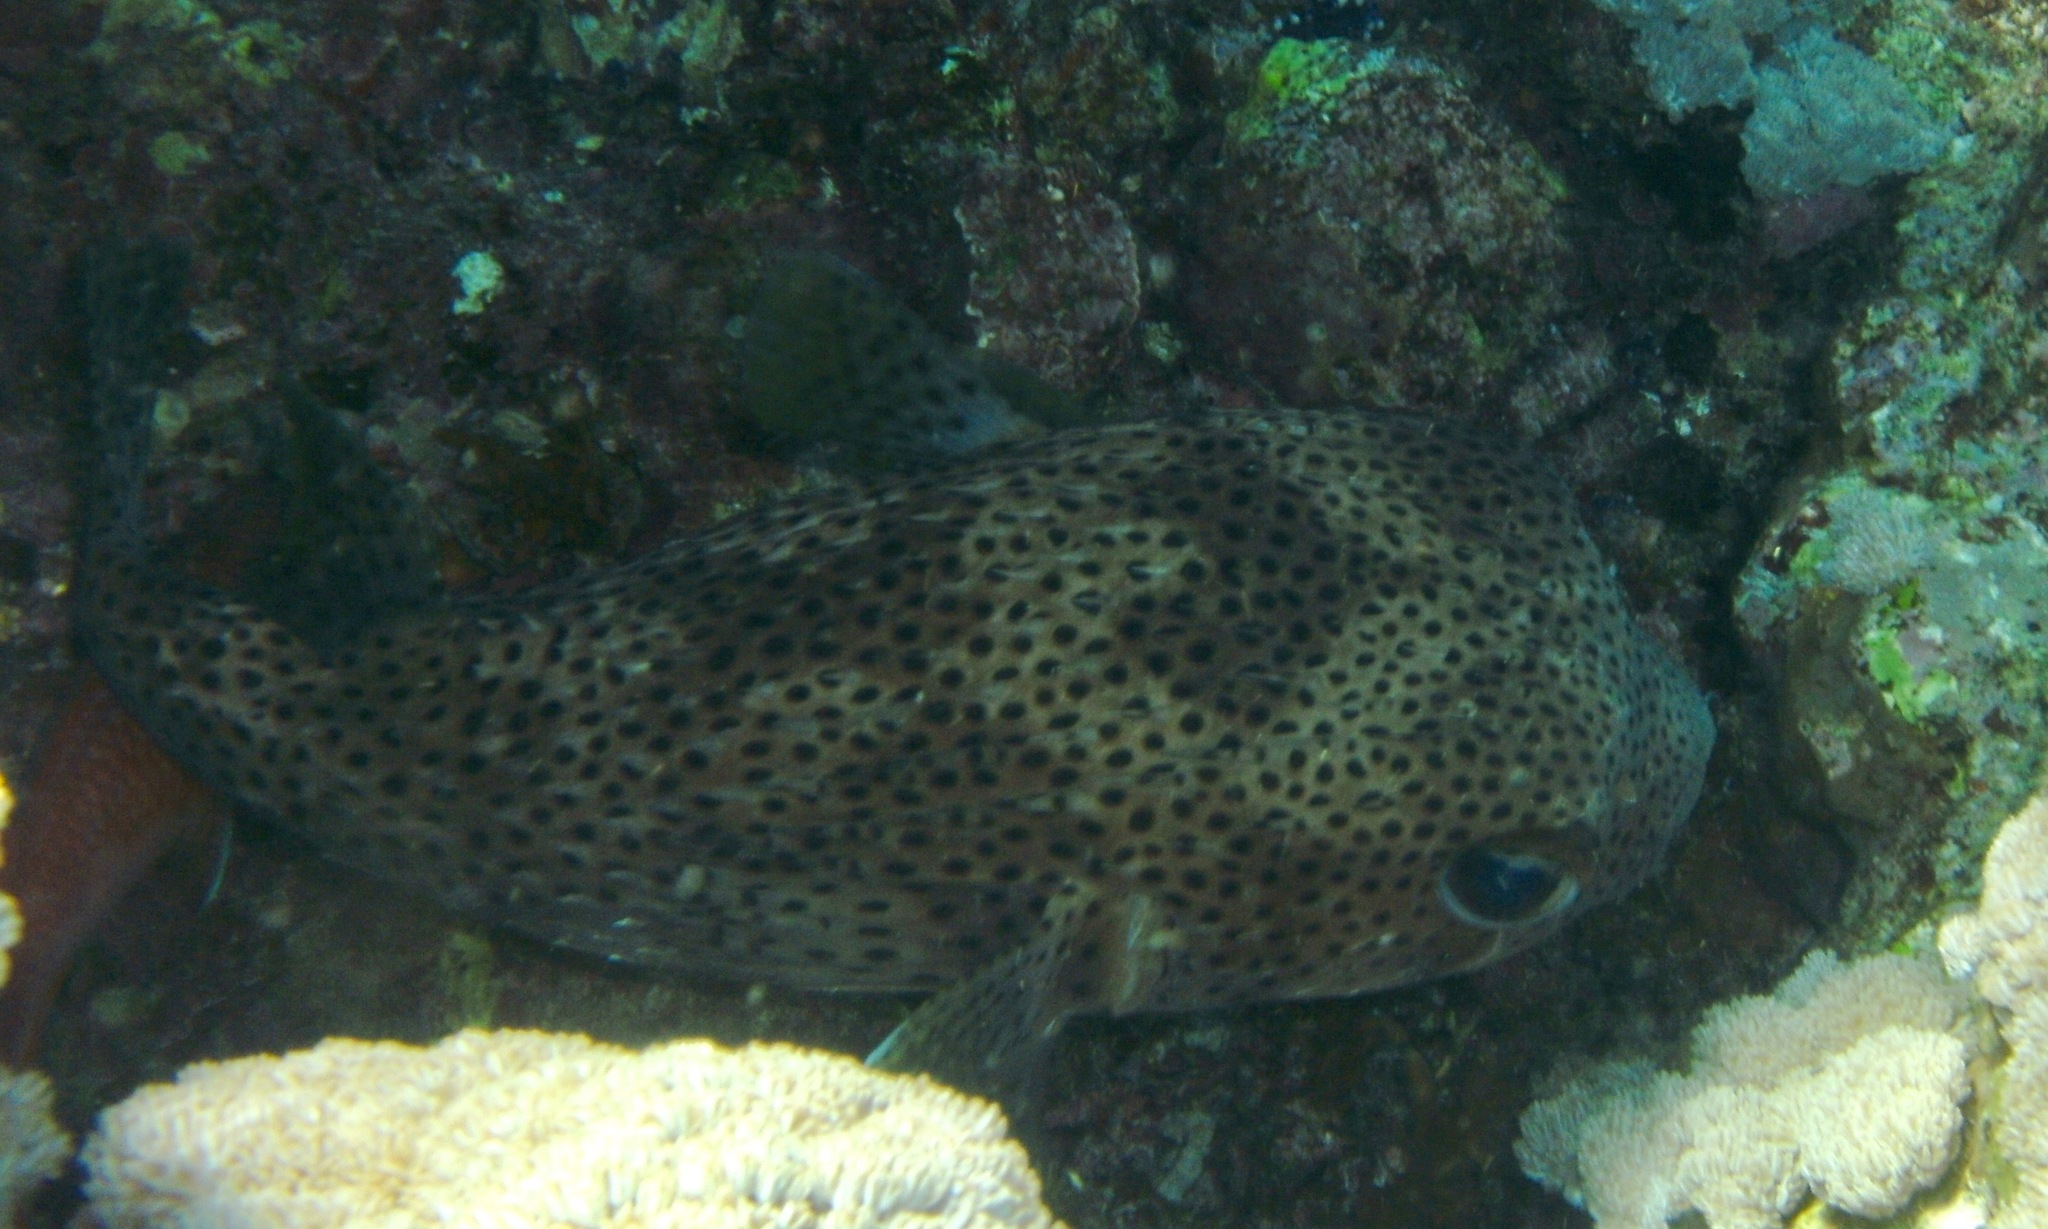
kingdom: Animalia
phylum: Chordata
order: Tetraodontiformes
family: Diodontidae
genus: Diodon
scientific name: Diodon hystrix
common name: Giant porcupinefish
